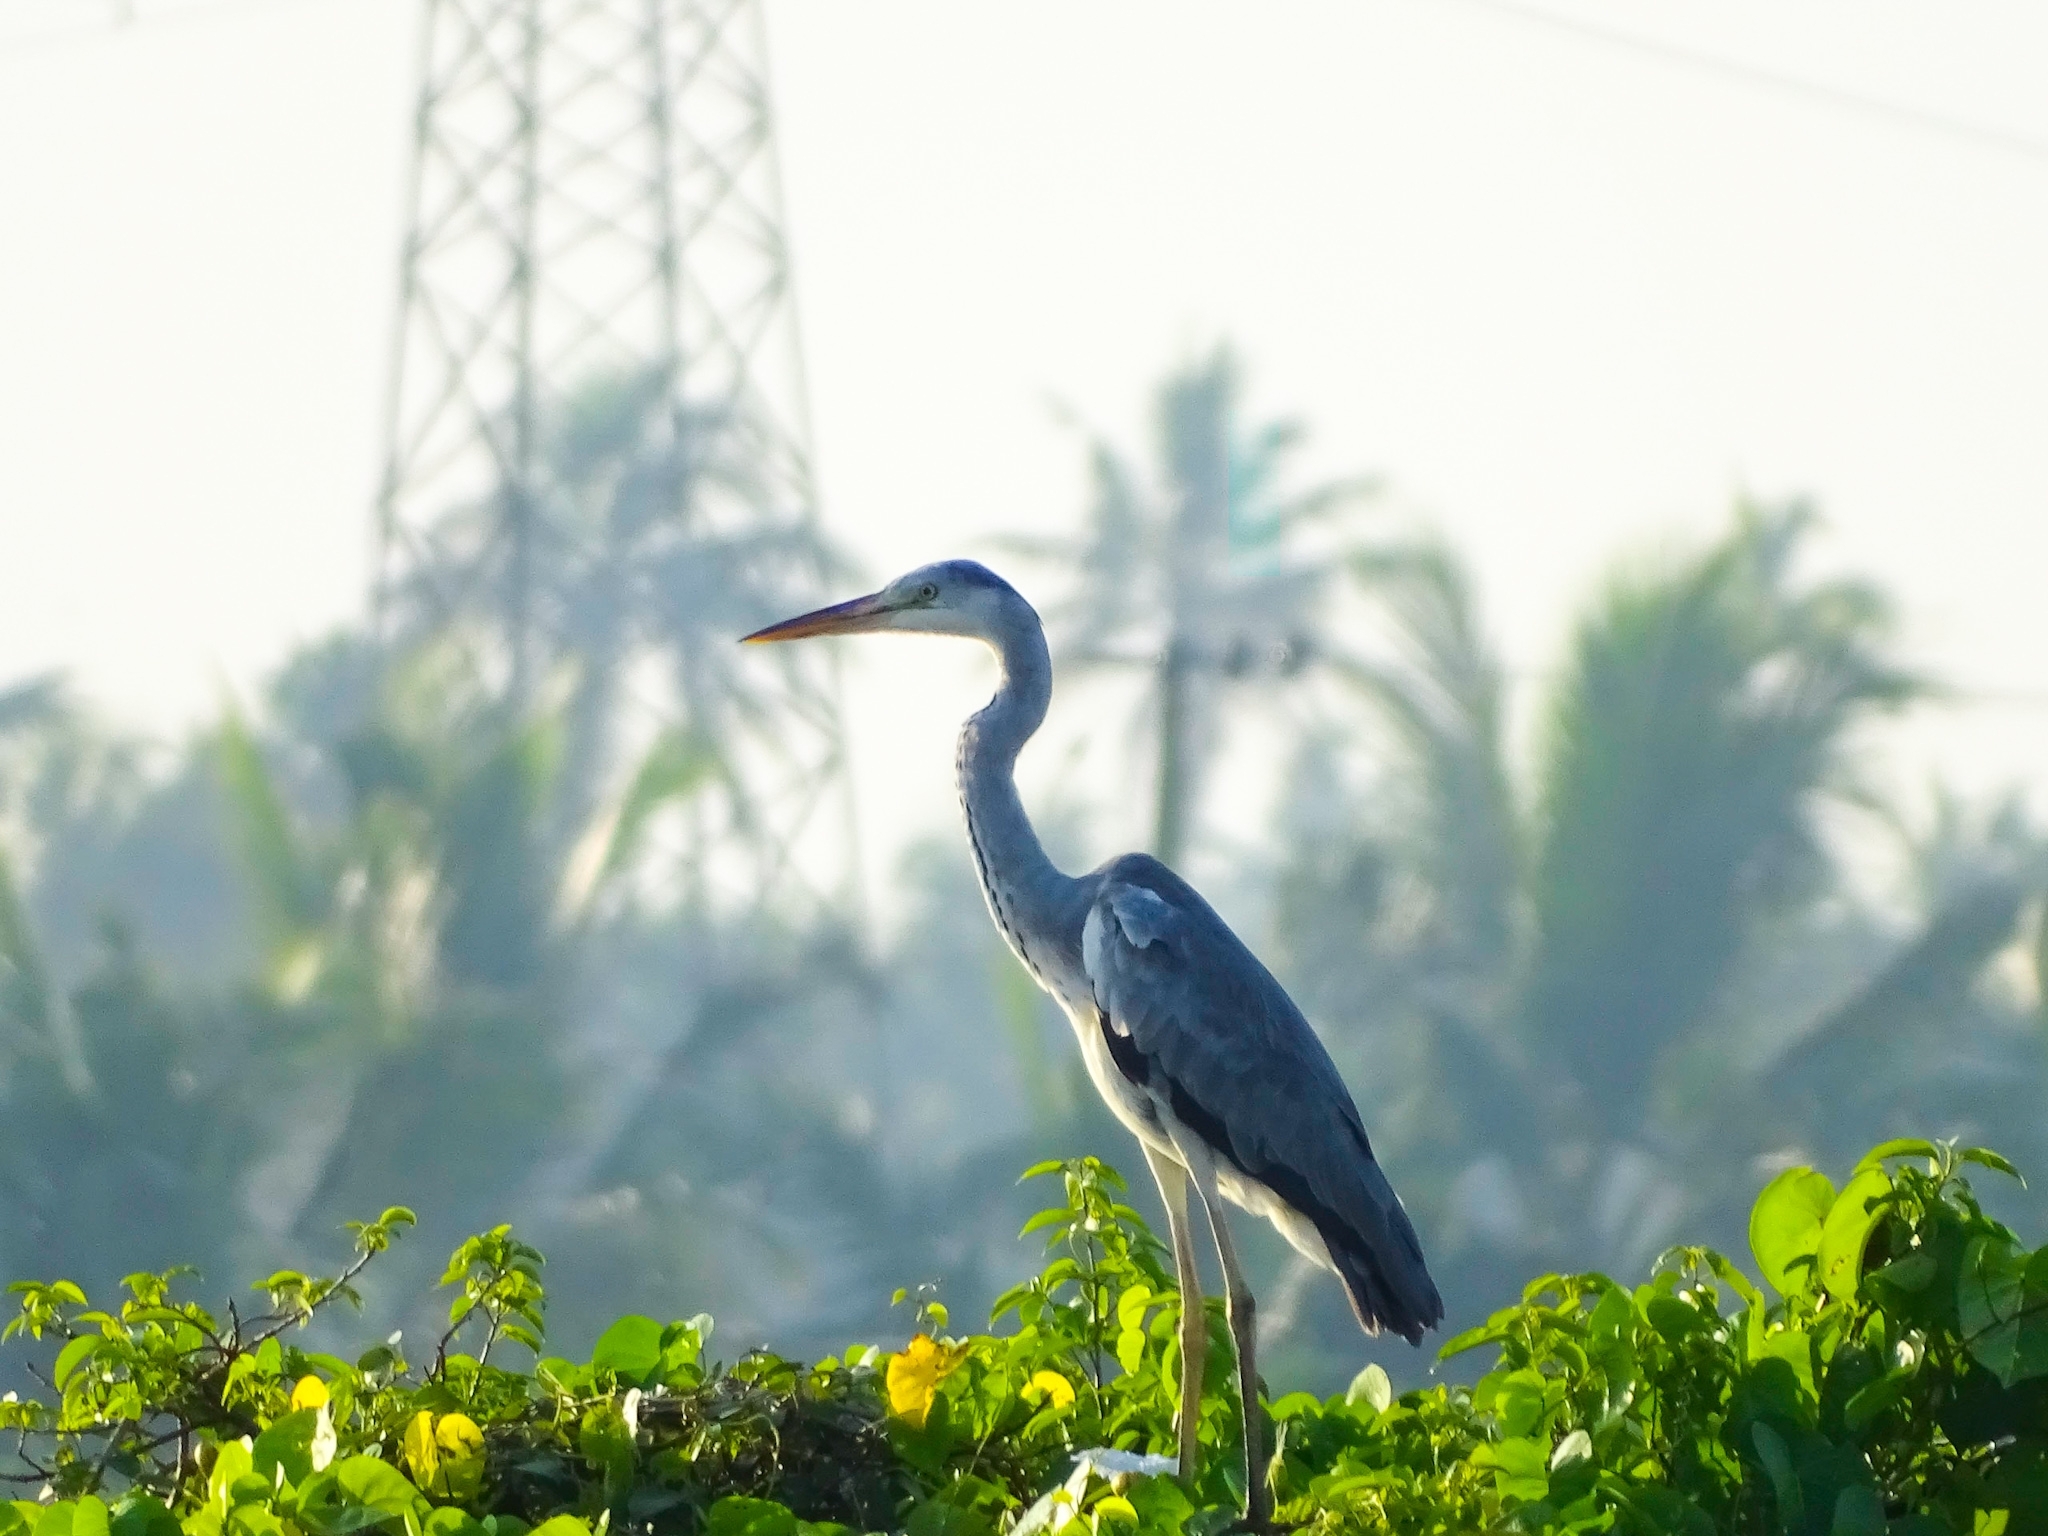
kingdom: Animalia
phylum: Chordata
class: Aves
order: Pelecaniformes
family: Ardeidae
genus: Ardea
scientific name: Ardea cinerea
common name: Grey heron
